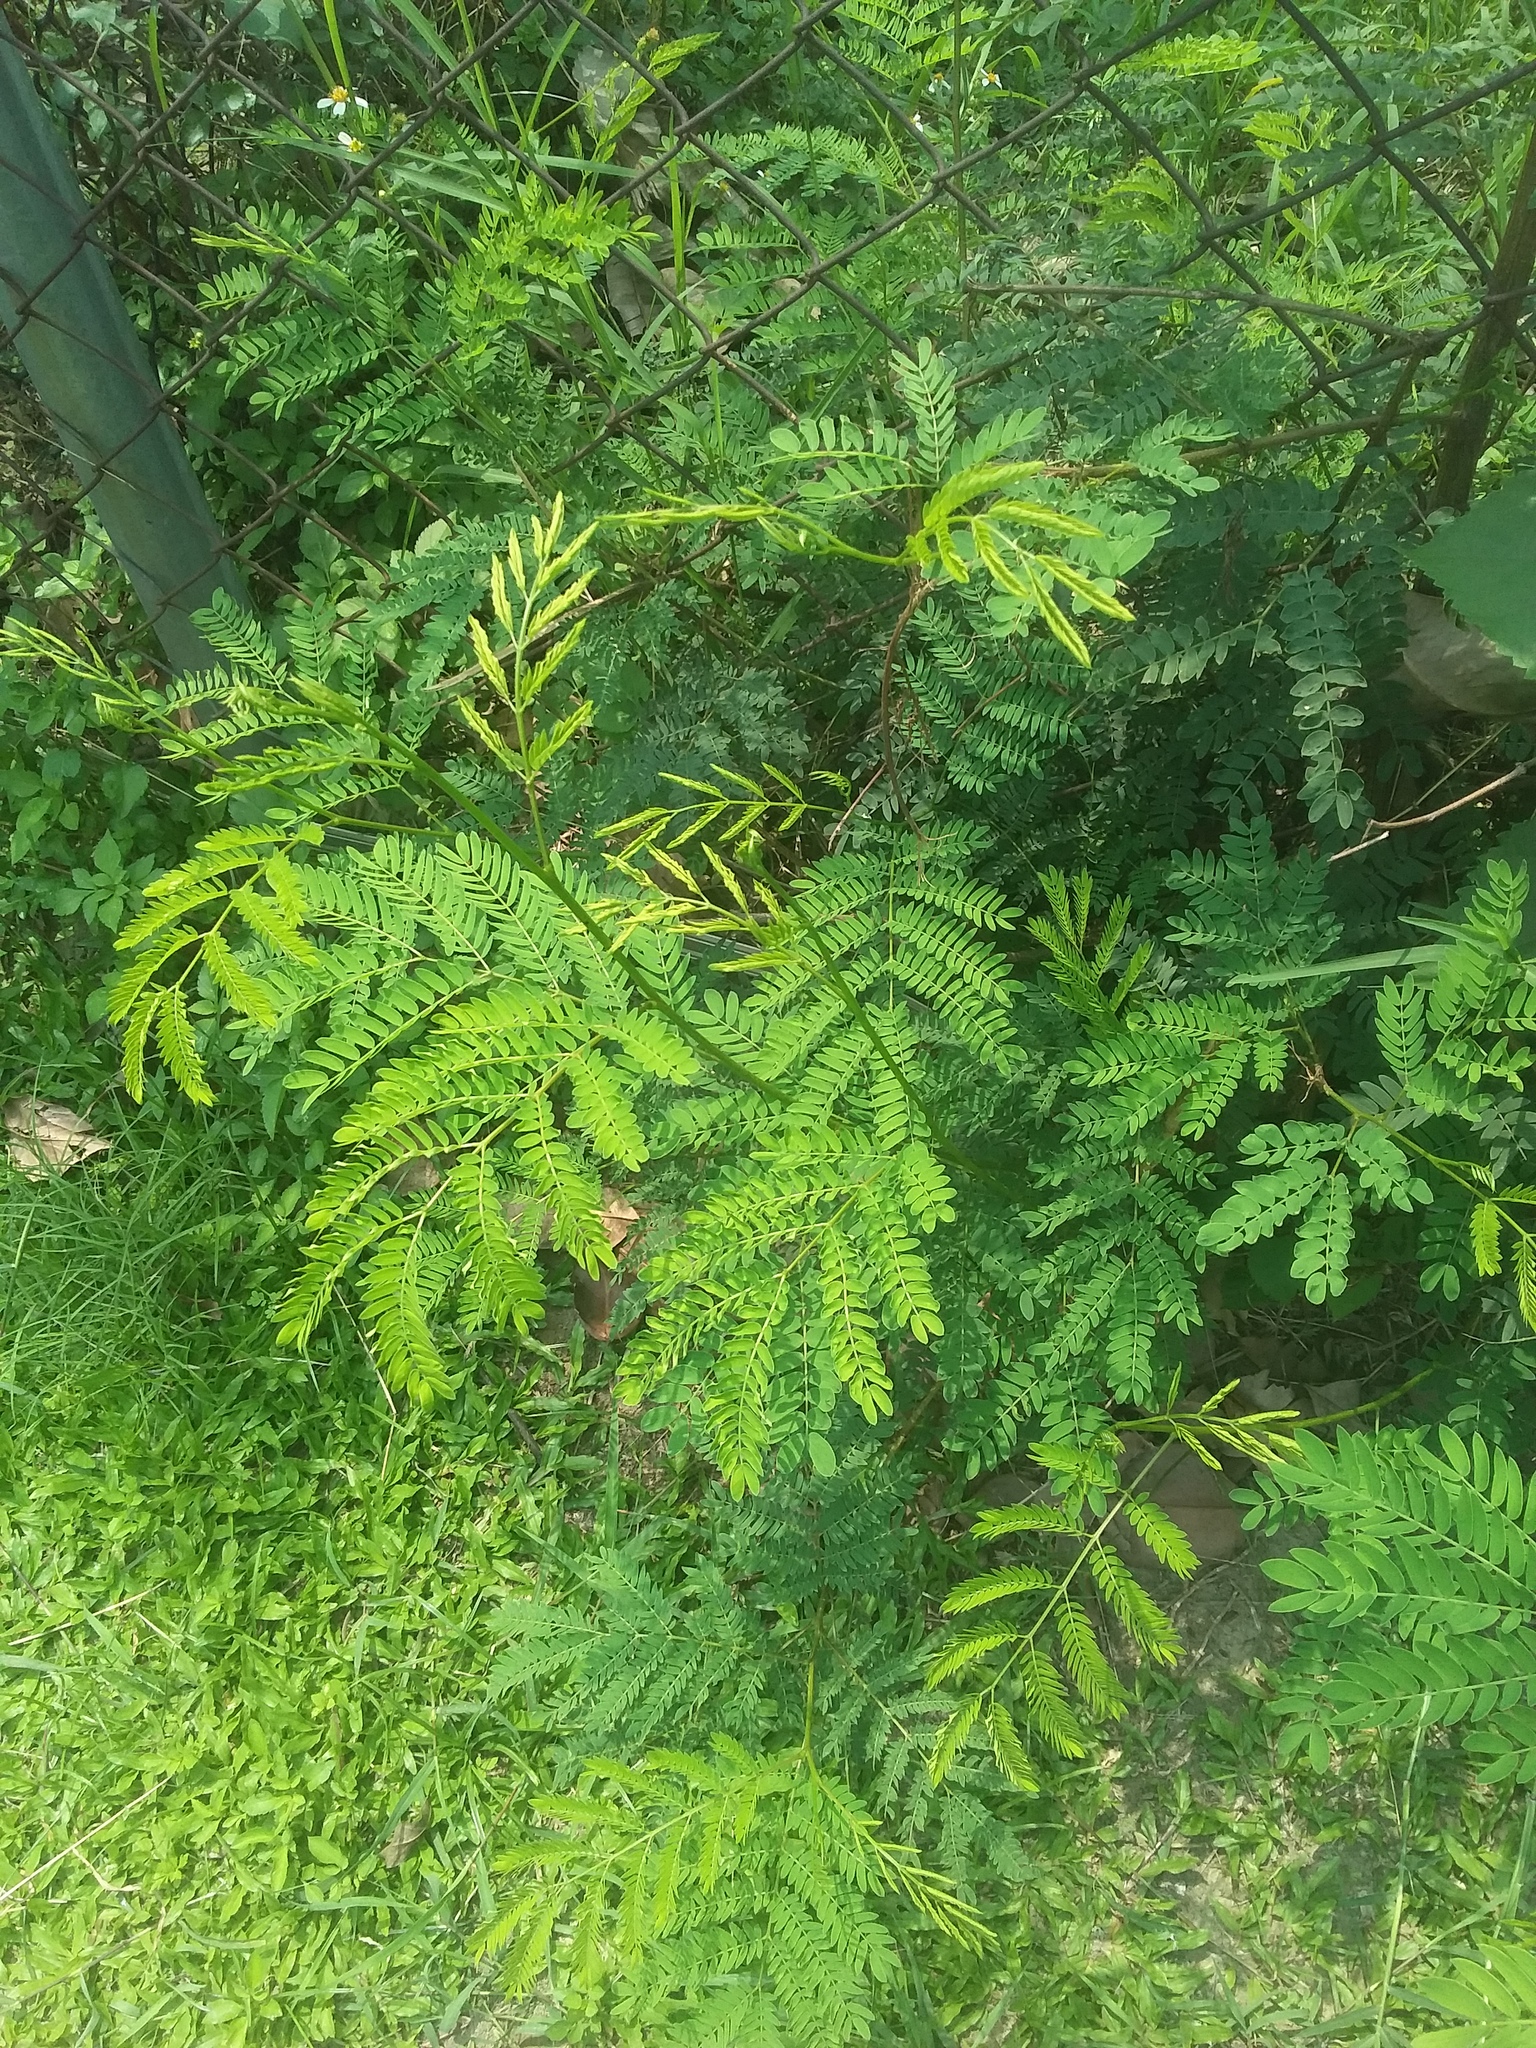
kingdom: Plantae
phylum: Tracheophyta
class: Magnoliopsida
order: Fabales
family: Fabaceae
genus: Leucaena
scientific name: Leucaena leucocephala
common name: White leadtree
